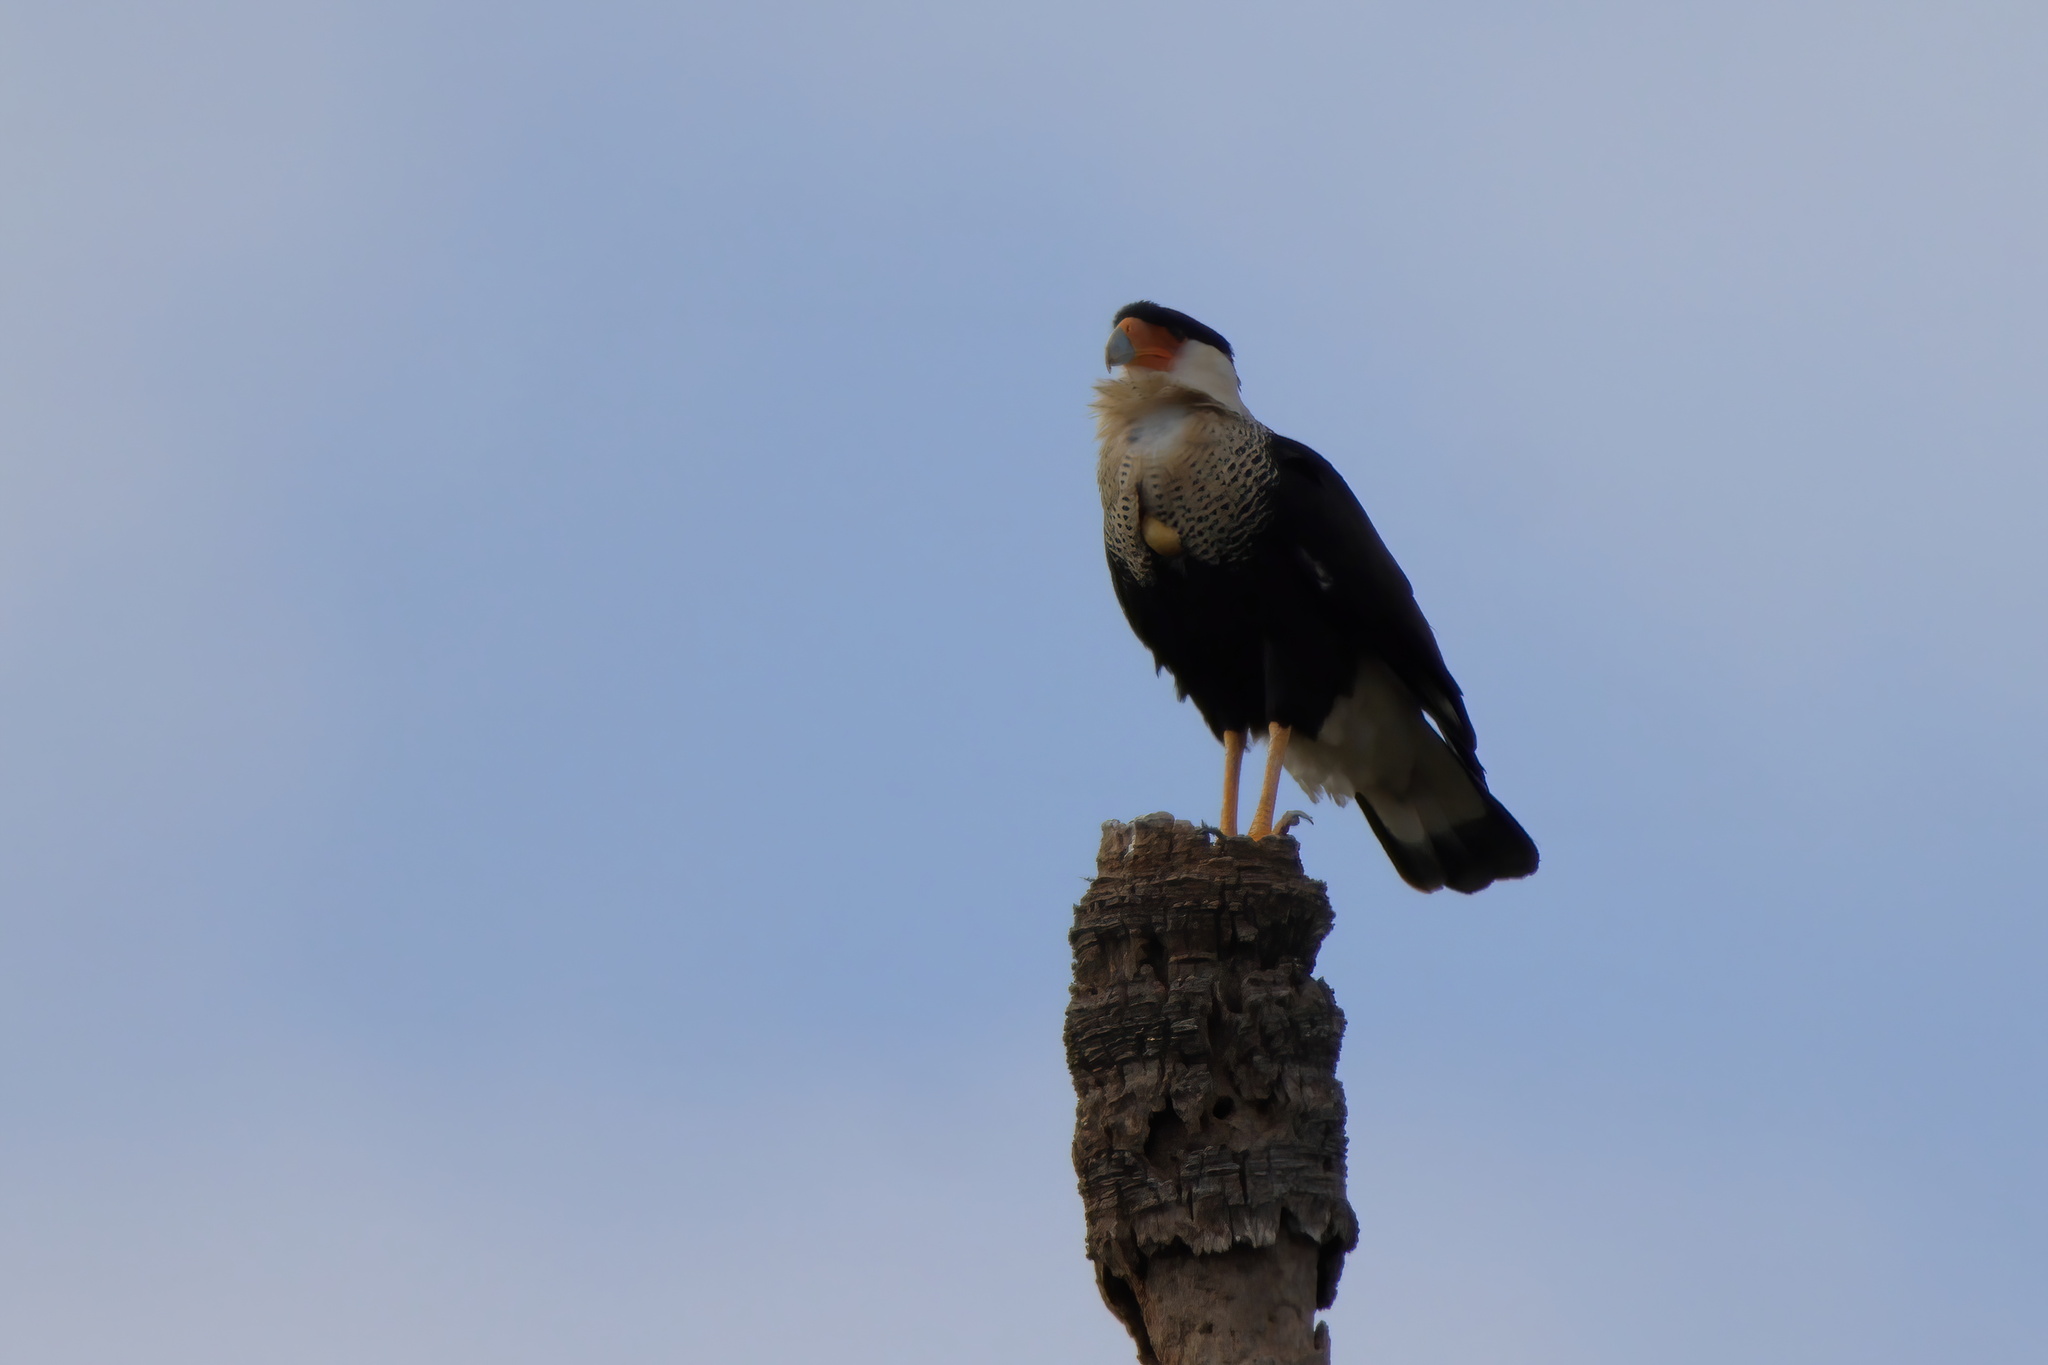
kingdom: Animalia
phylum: Chordata
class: Aves
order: Falconiformes
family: Falconidae
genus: Caracara
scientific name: Caracara plancus
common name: Southern caracara
